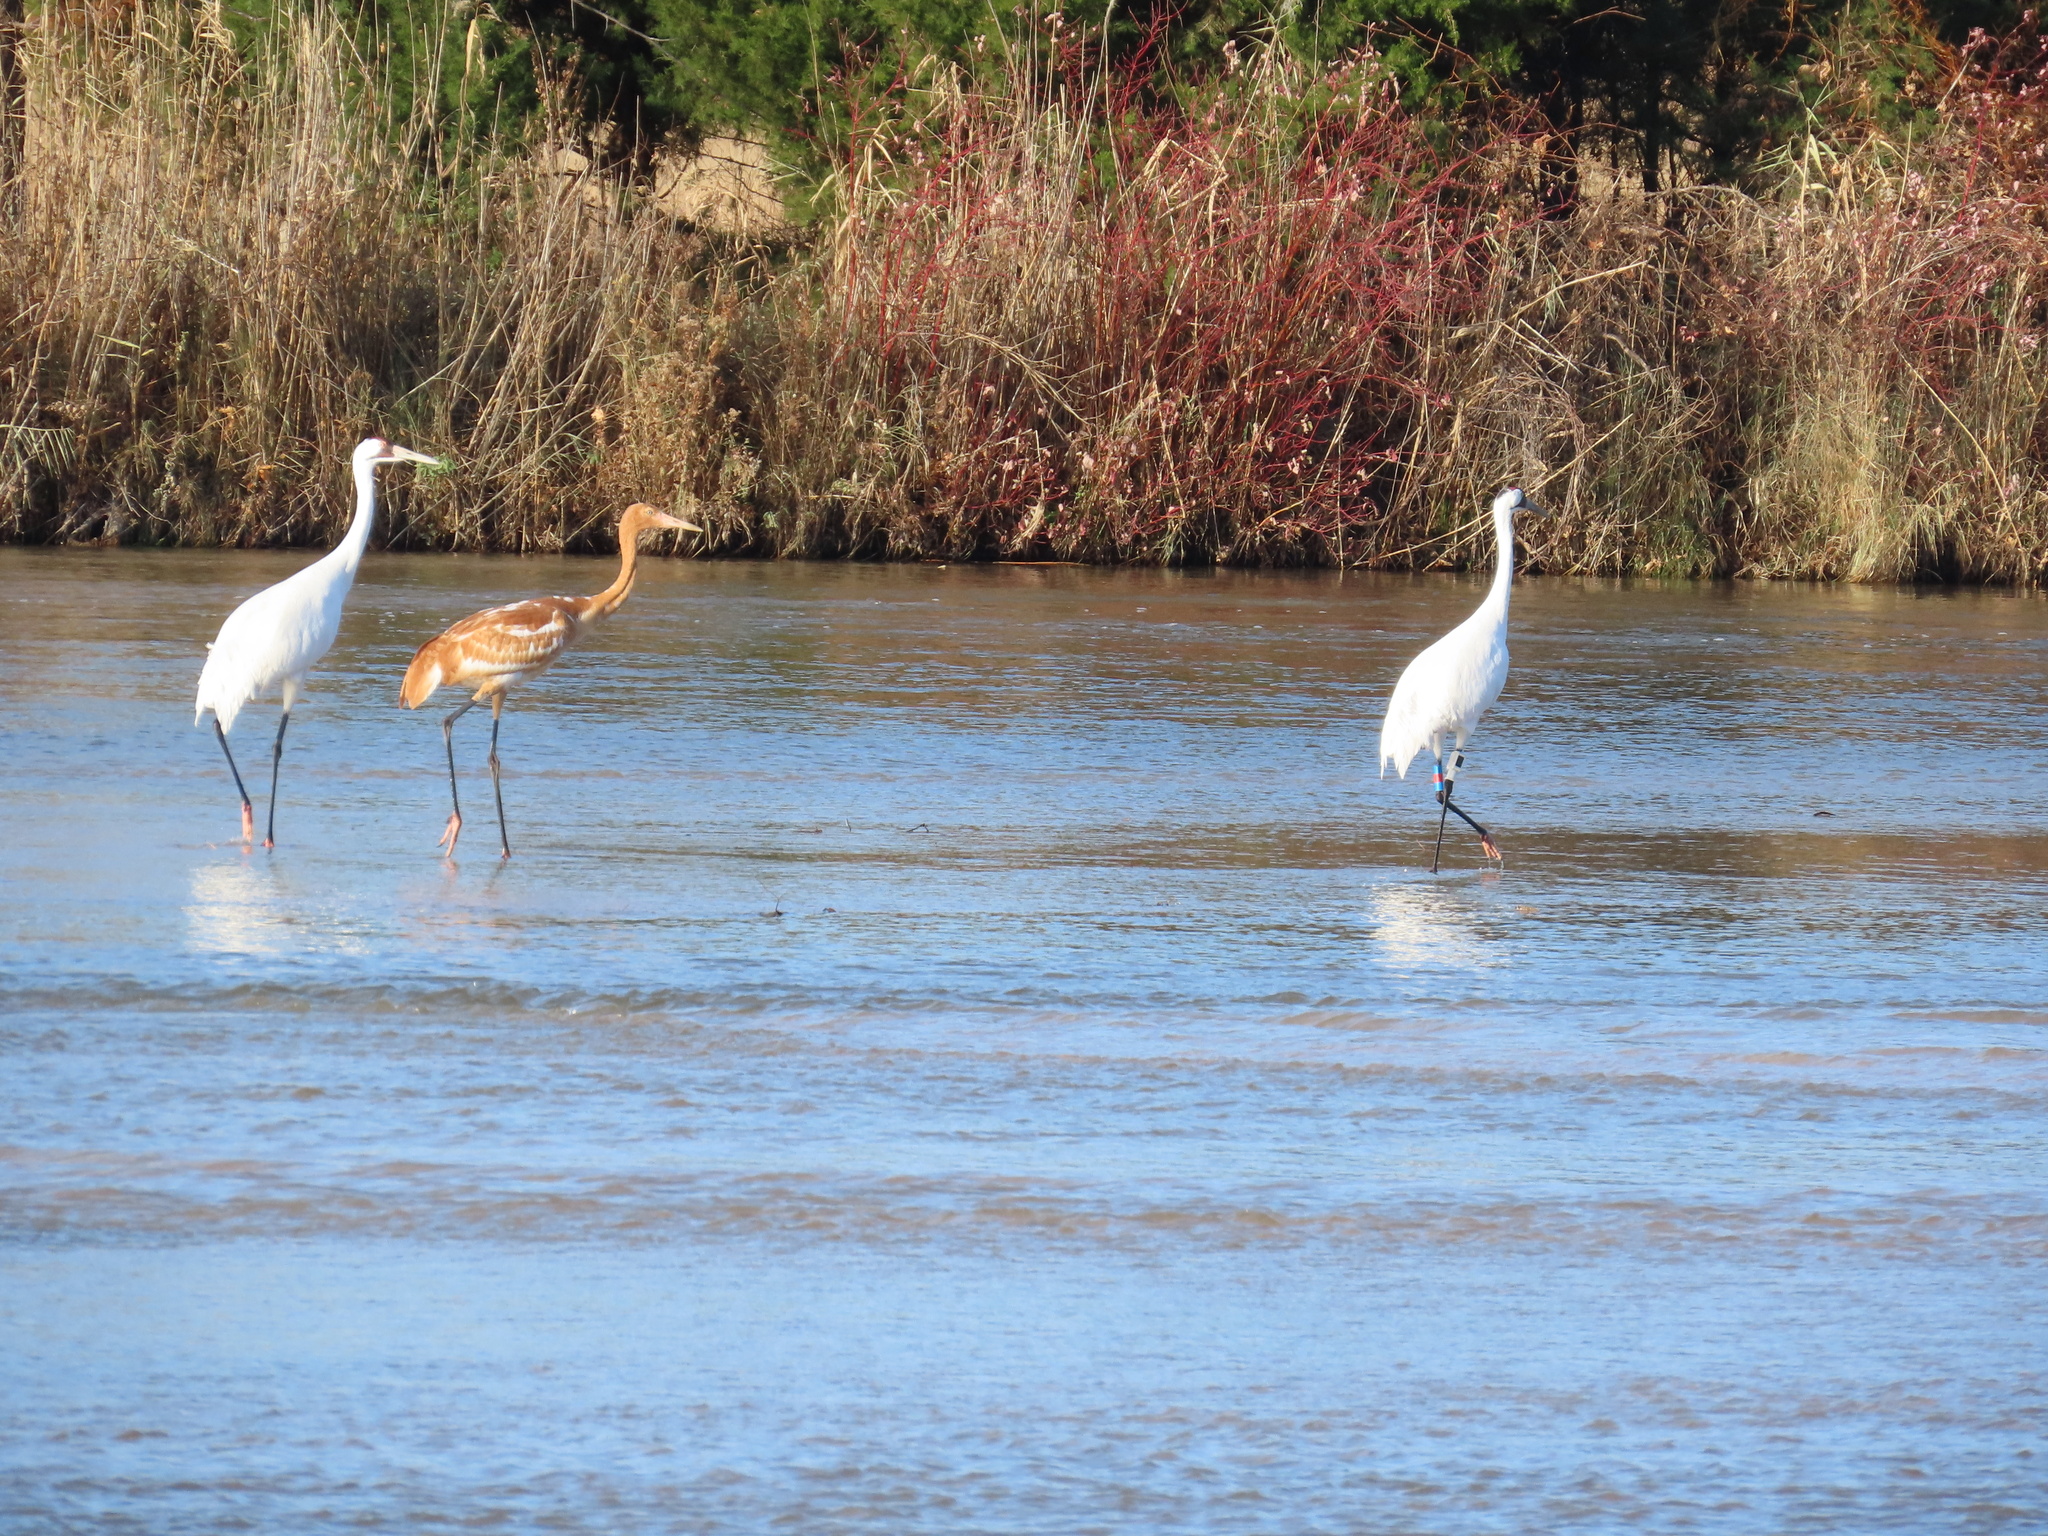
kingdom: Animalia
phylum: Chordata
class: Aves
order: Gruiformes
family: Gruidae
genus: Grus
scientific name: Grus americana
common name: Whooping crane
